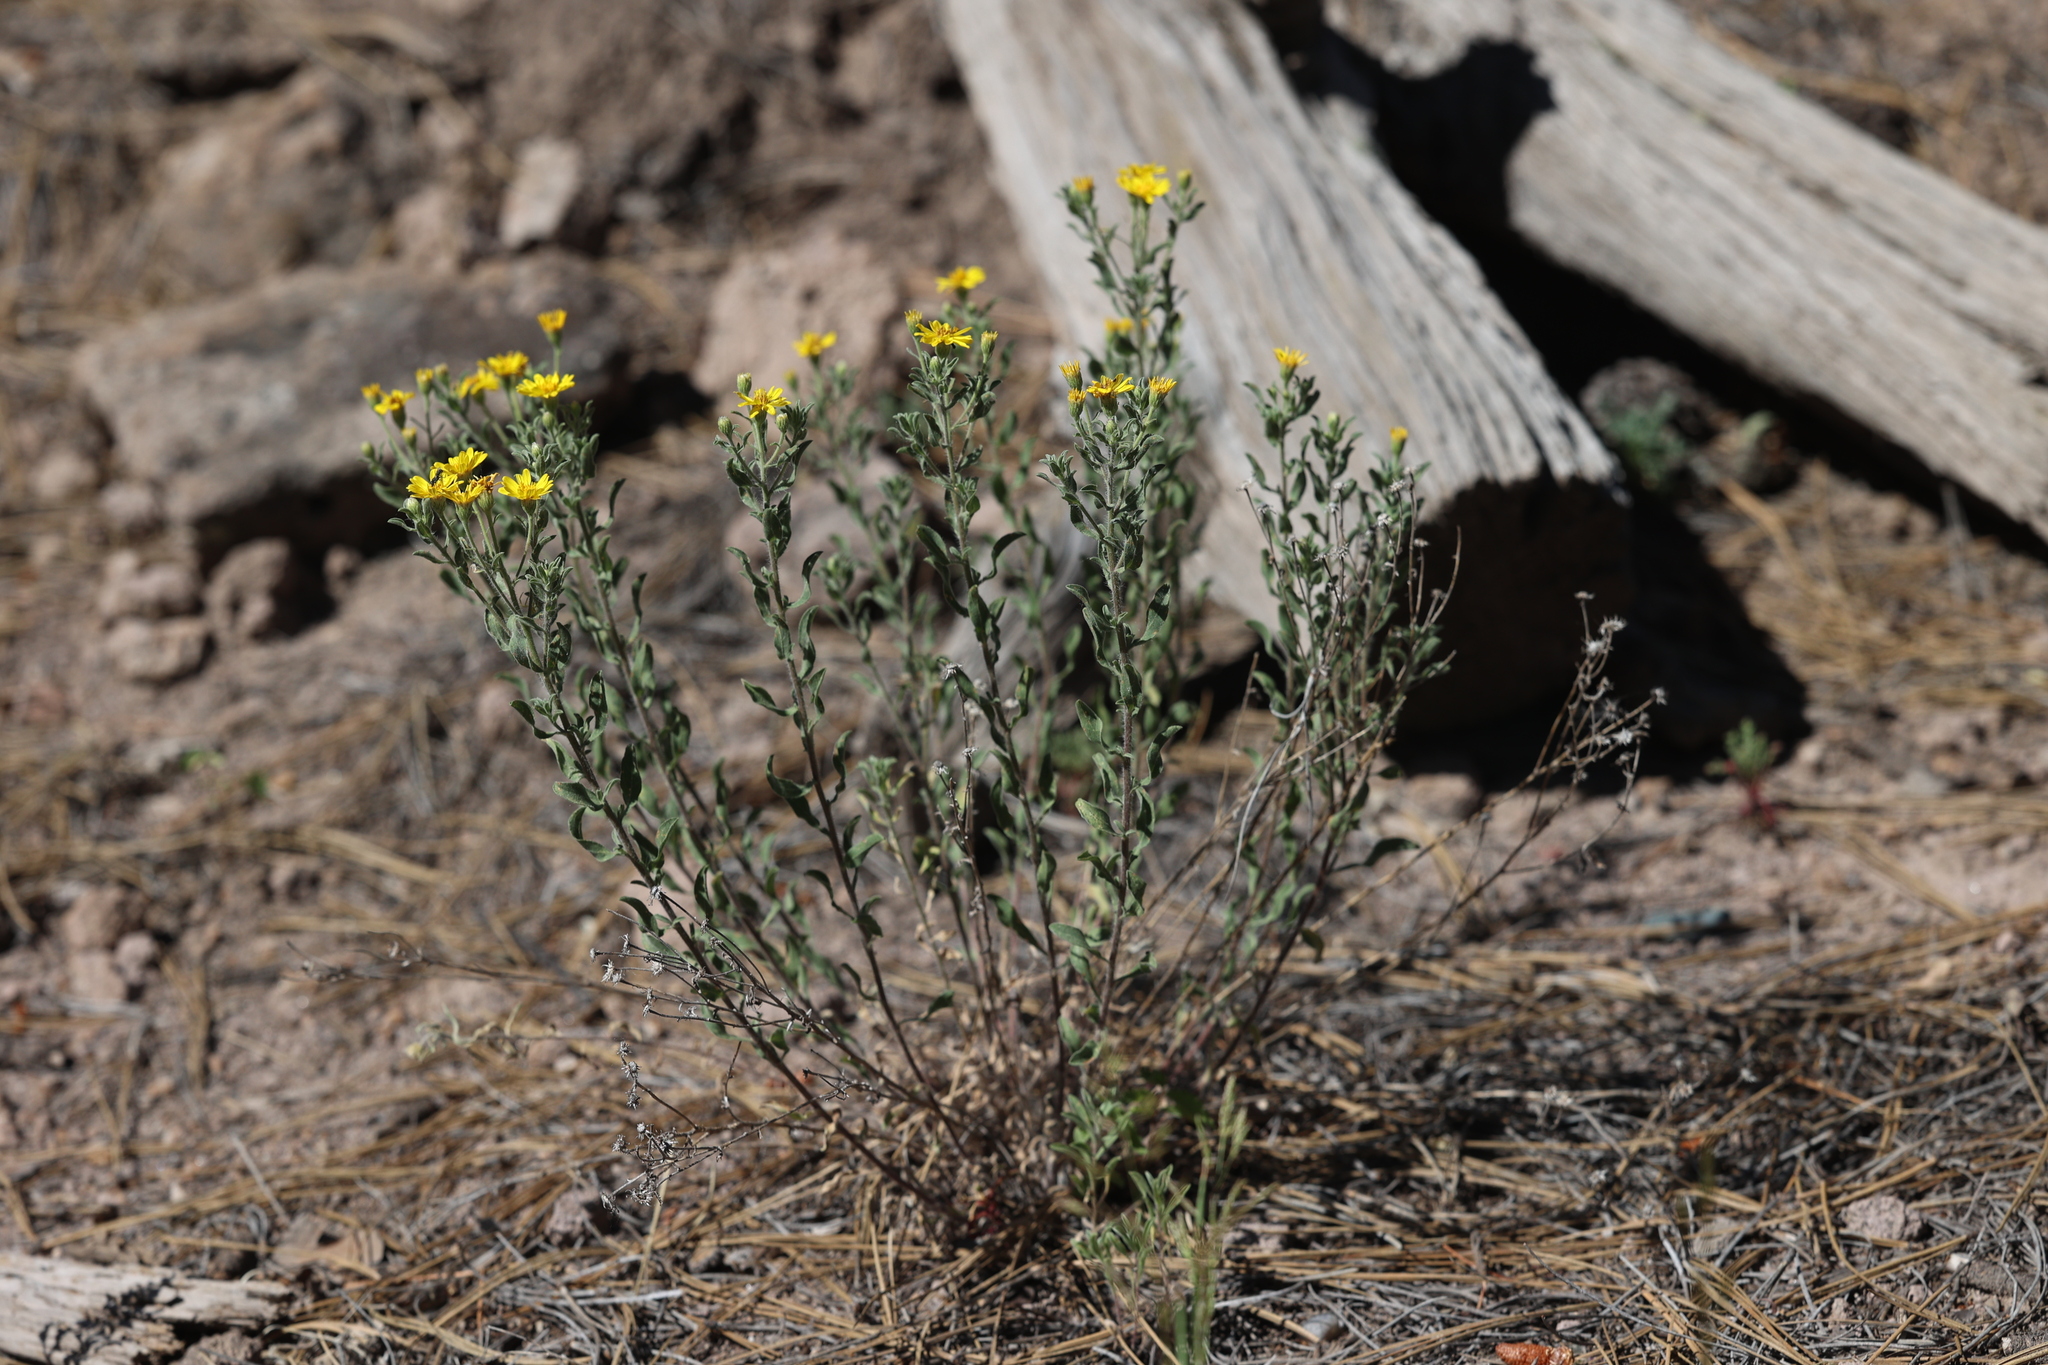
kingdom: Plantae
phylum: Tracheophyta
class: Magnoliopsida
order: Asterales
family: Asteraceae
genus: Heterotheca
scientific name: Heterotheca hirsutissima
